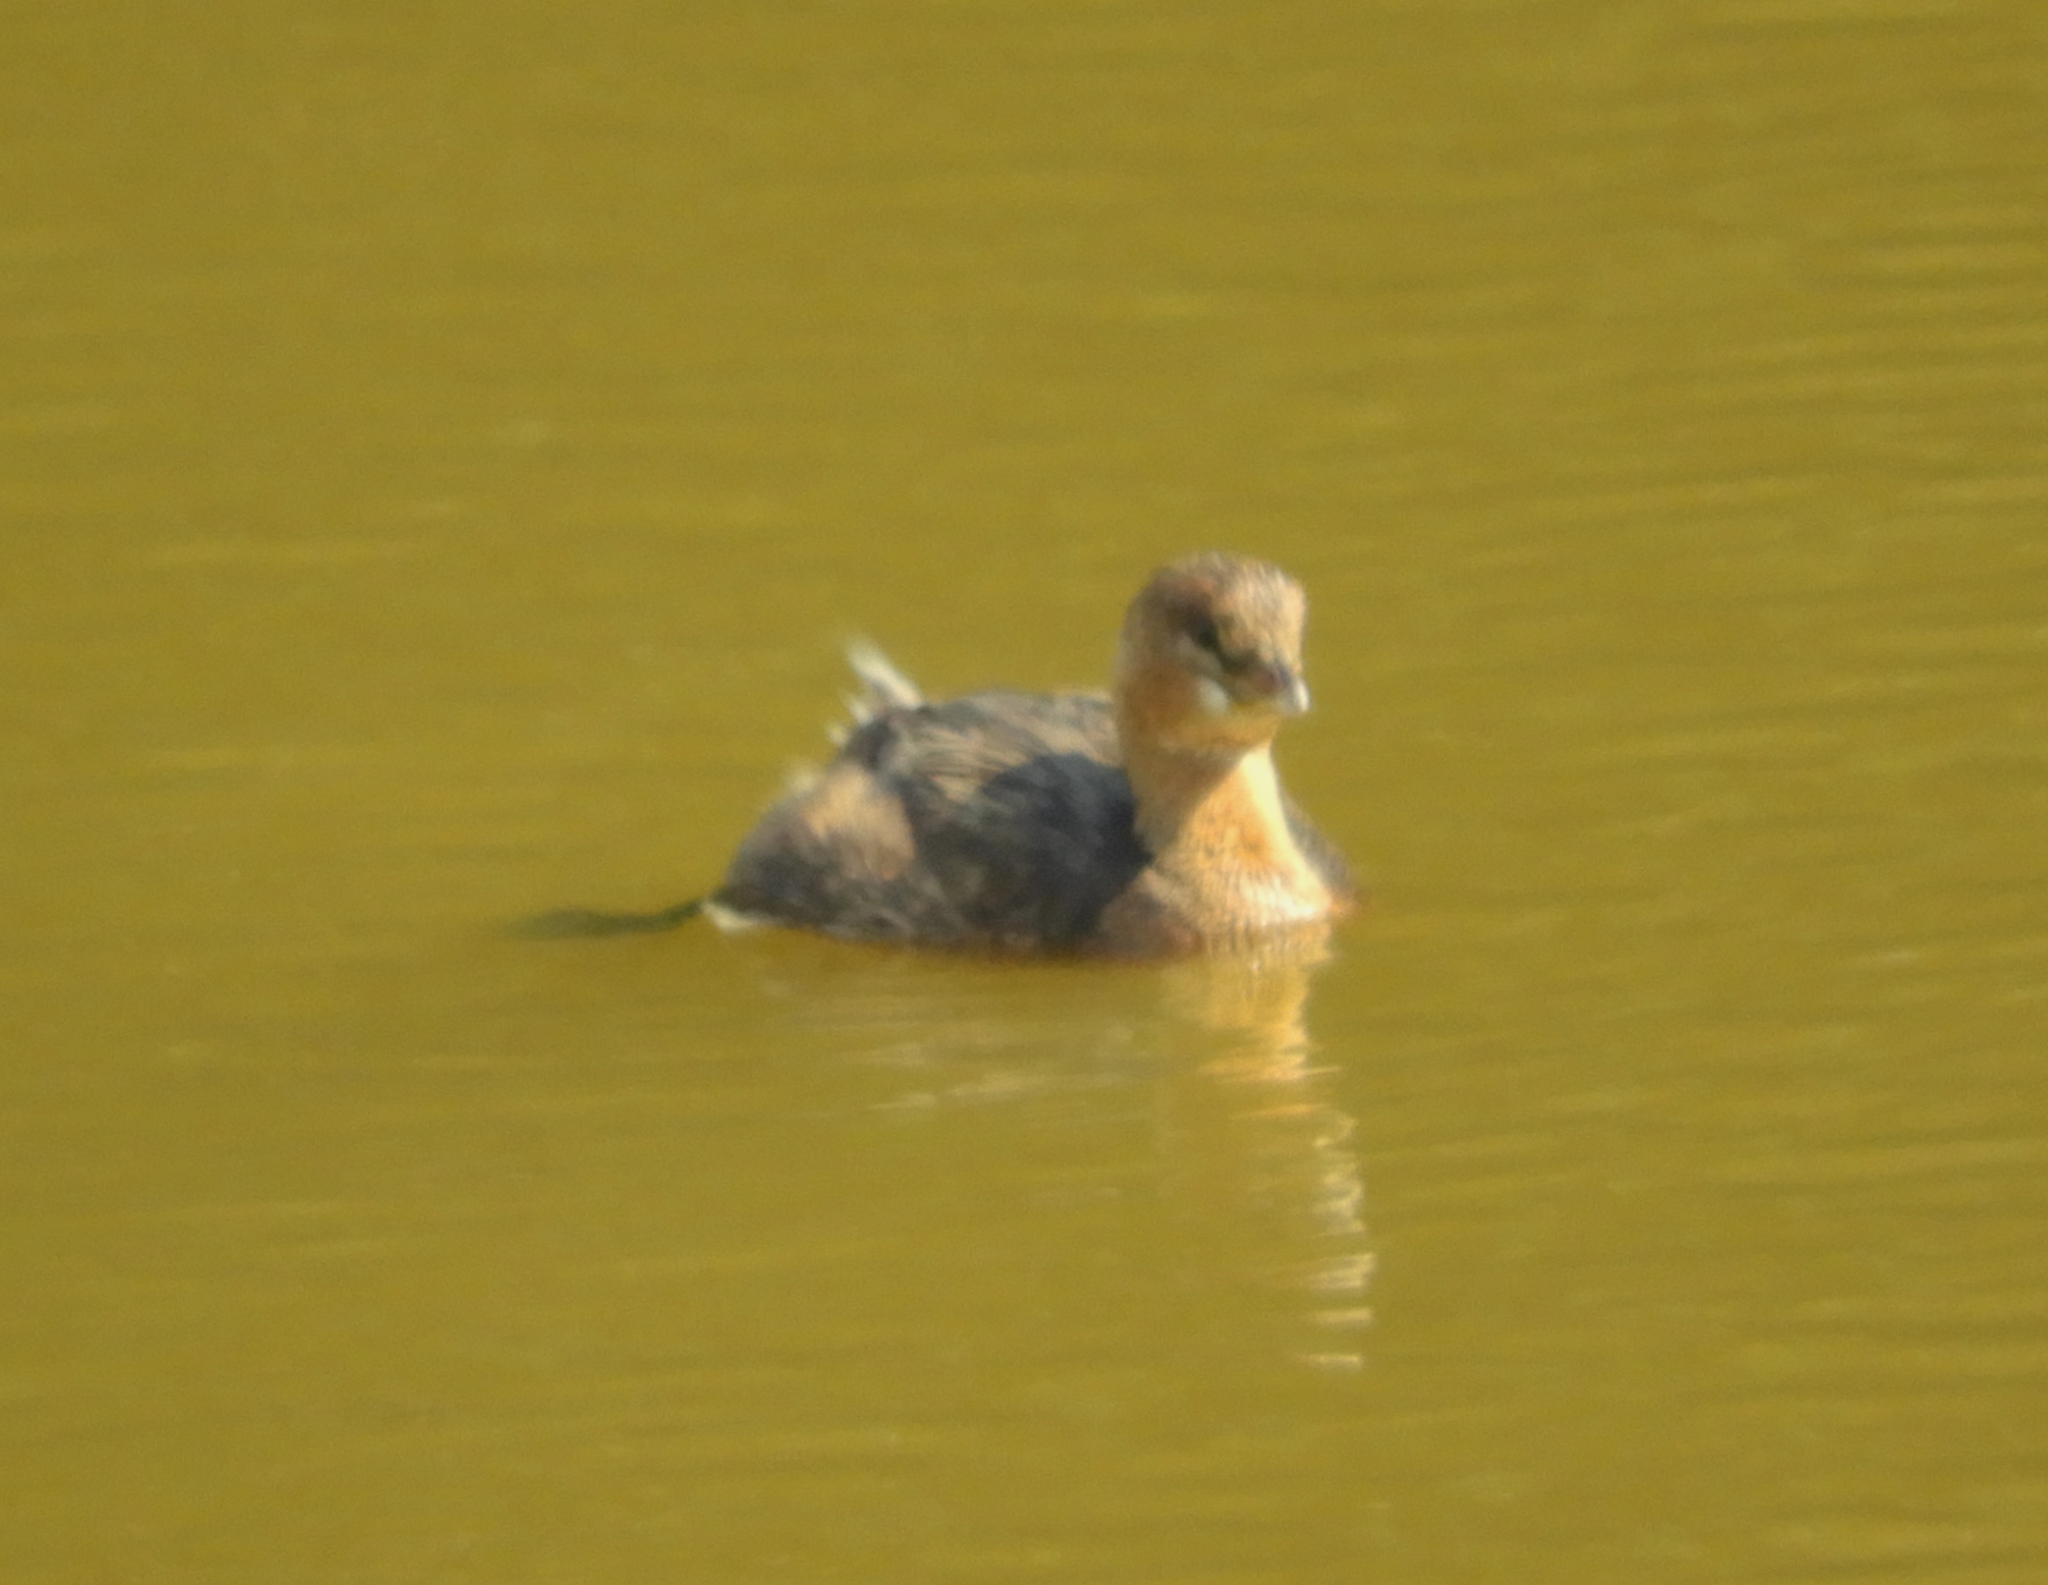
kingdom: Animalia
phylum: Chordata
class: Aves
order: Podicipediformes
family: Podicipedidae
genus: Podilymbus
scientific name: Podilymbus podiceps
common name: Pied-billed grebe
